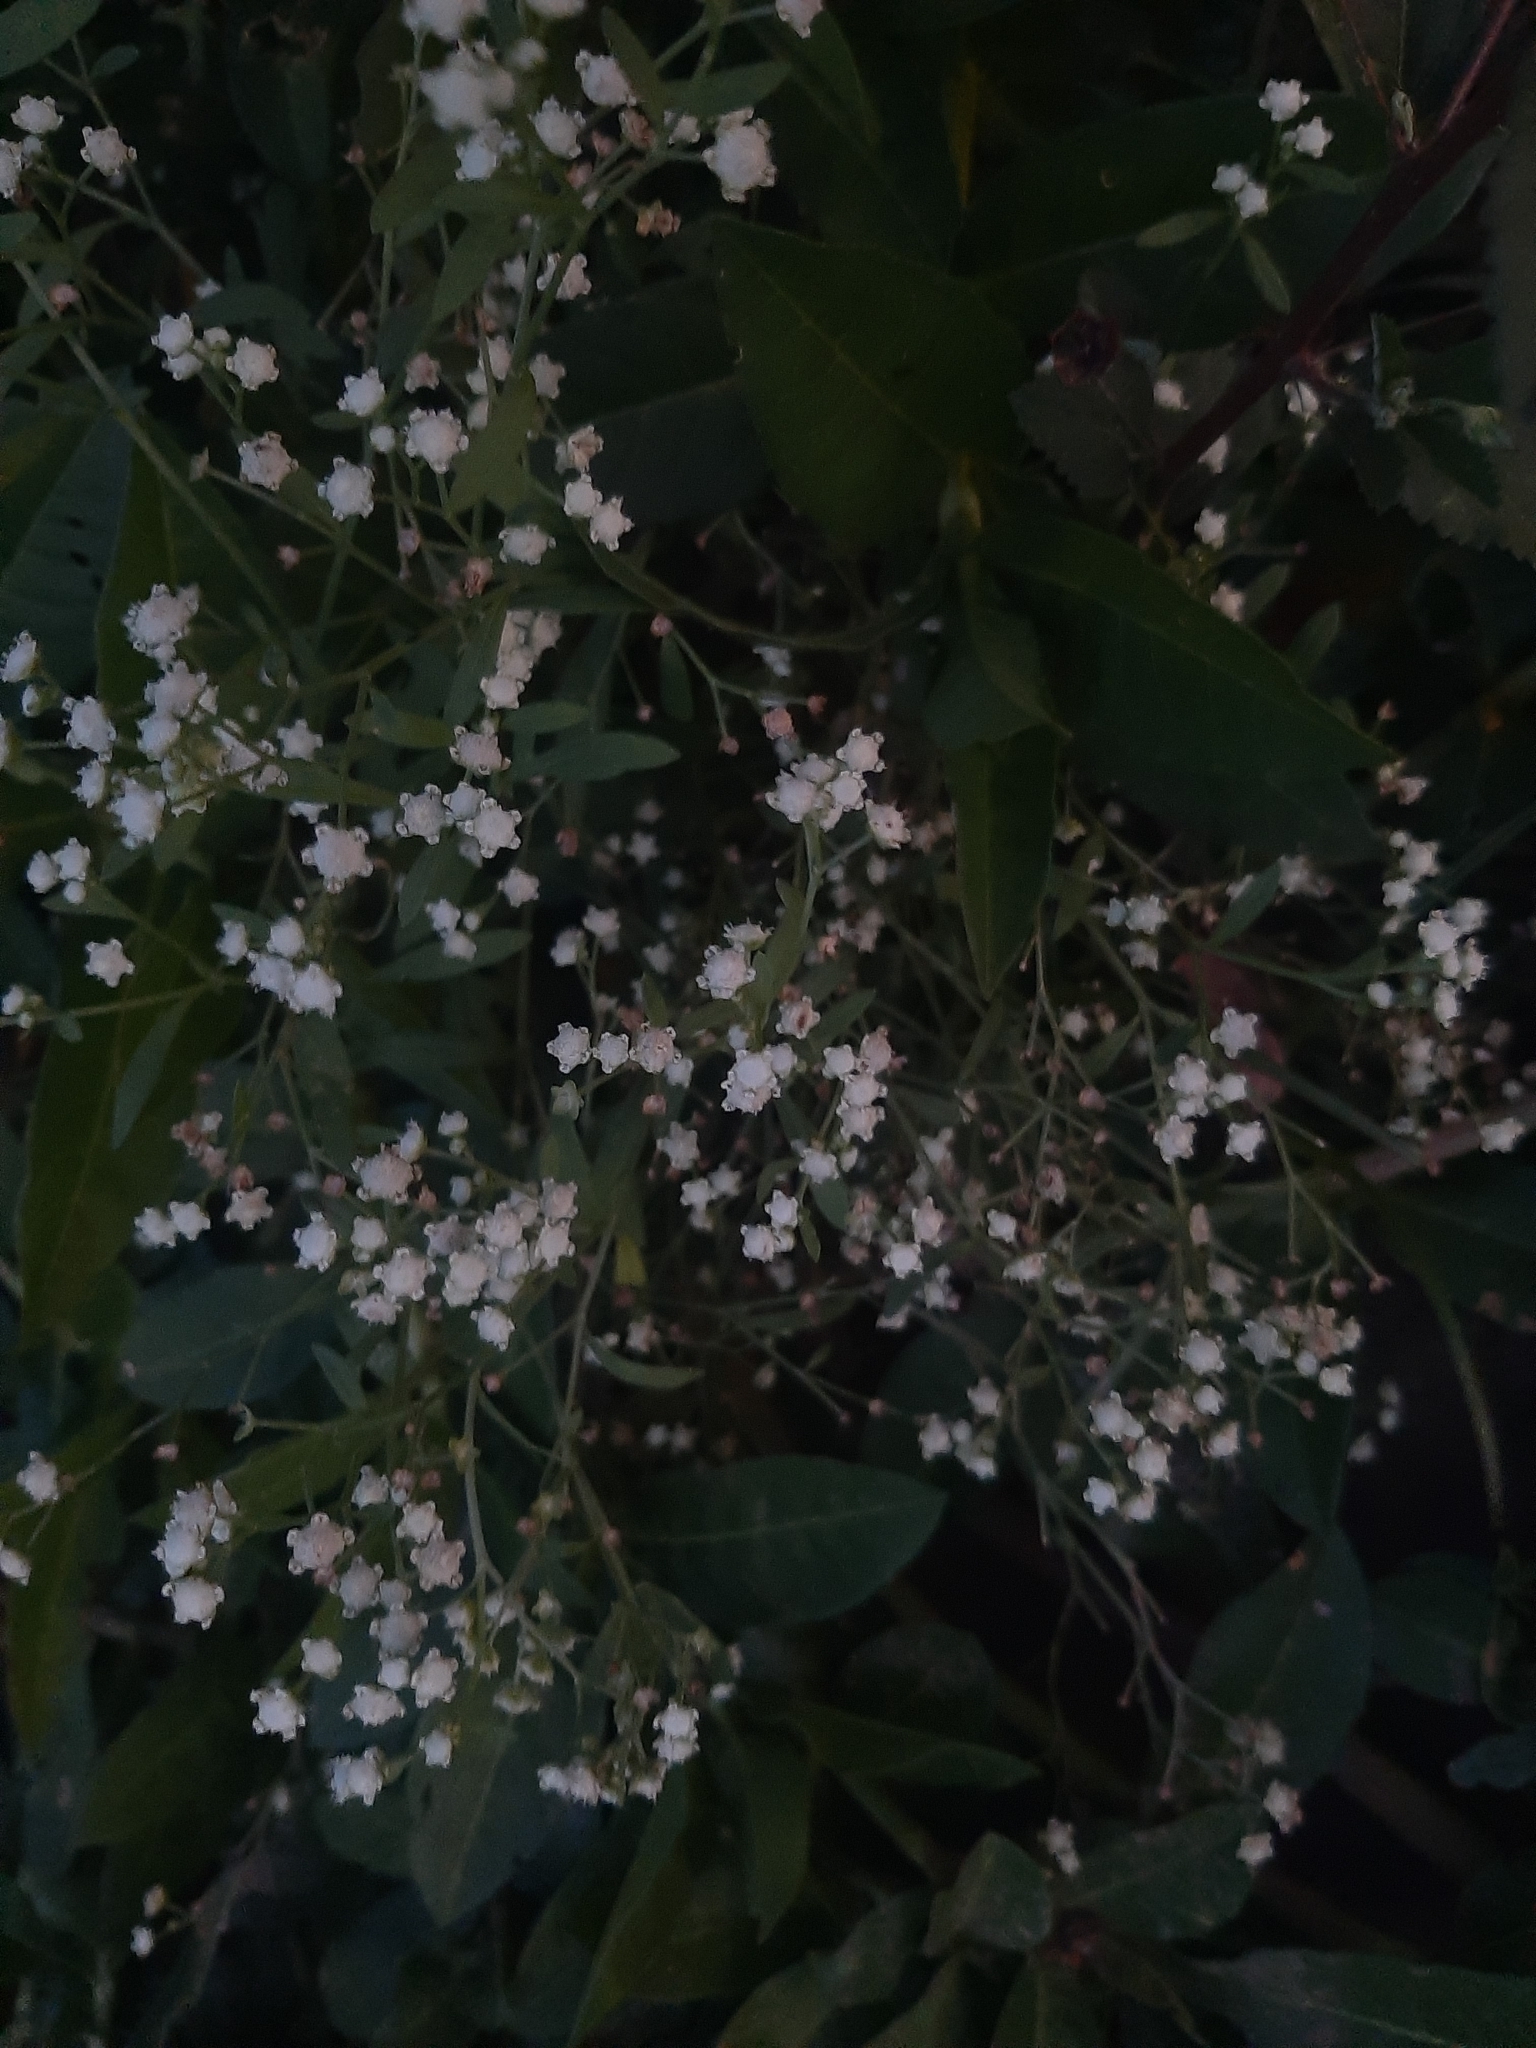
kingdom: Plantae
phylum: Tracheophyta
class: Magnoliopsida
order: Asterales
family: Asteraceae
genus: Parthenium
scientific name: Parthenium hysterophorus
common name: Santa maria feverfew
